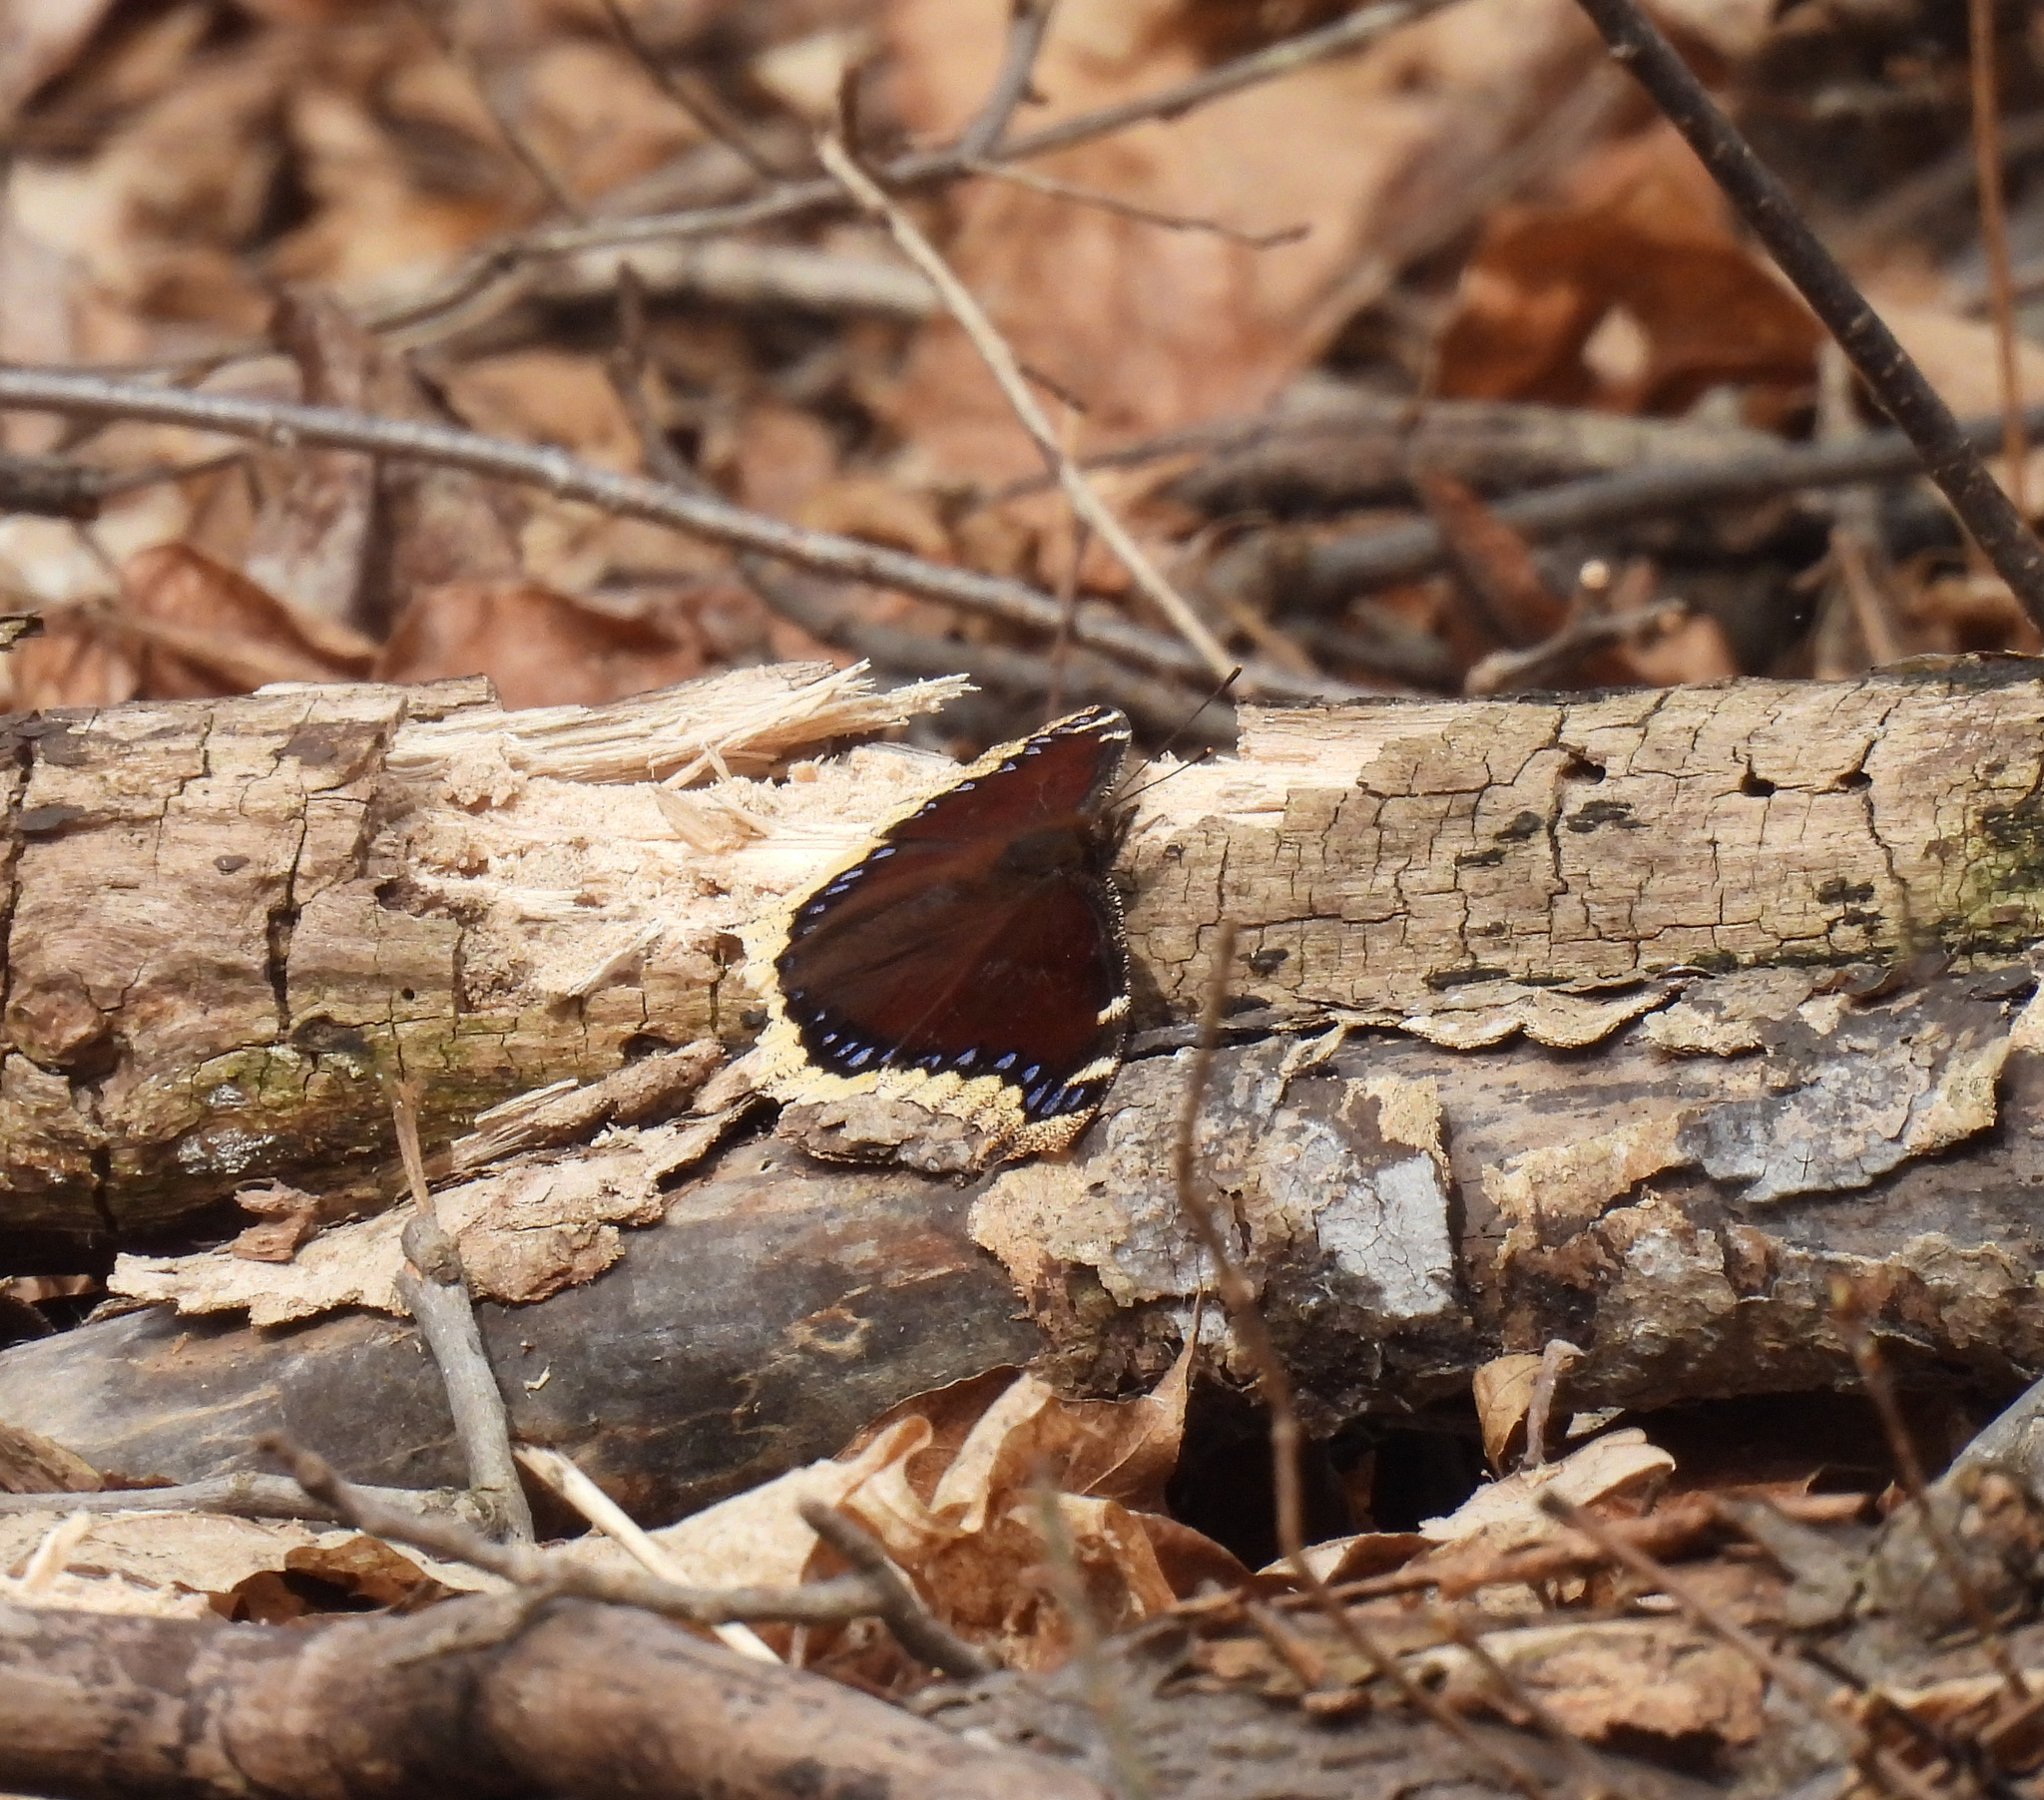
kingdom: Animalia
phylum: Arthropoda
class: Insecta
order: Lepidoptera
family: Nymphalidae
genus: Nymphalis
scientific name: Nymphalis antiopa
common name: Camberwell beauty
